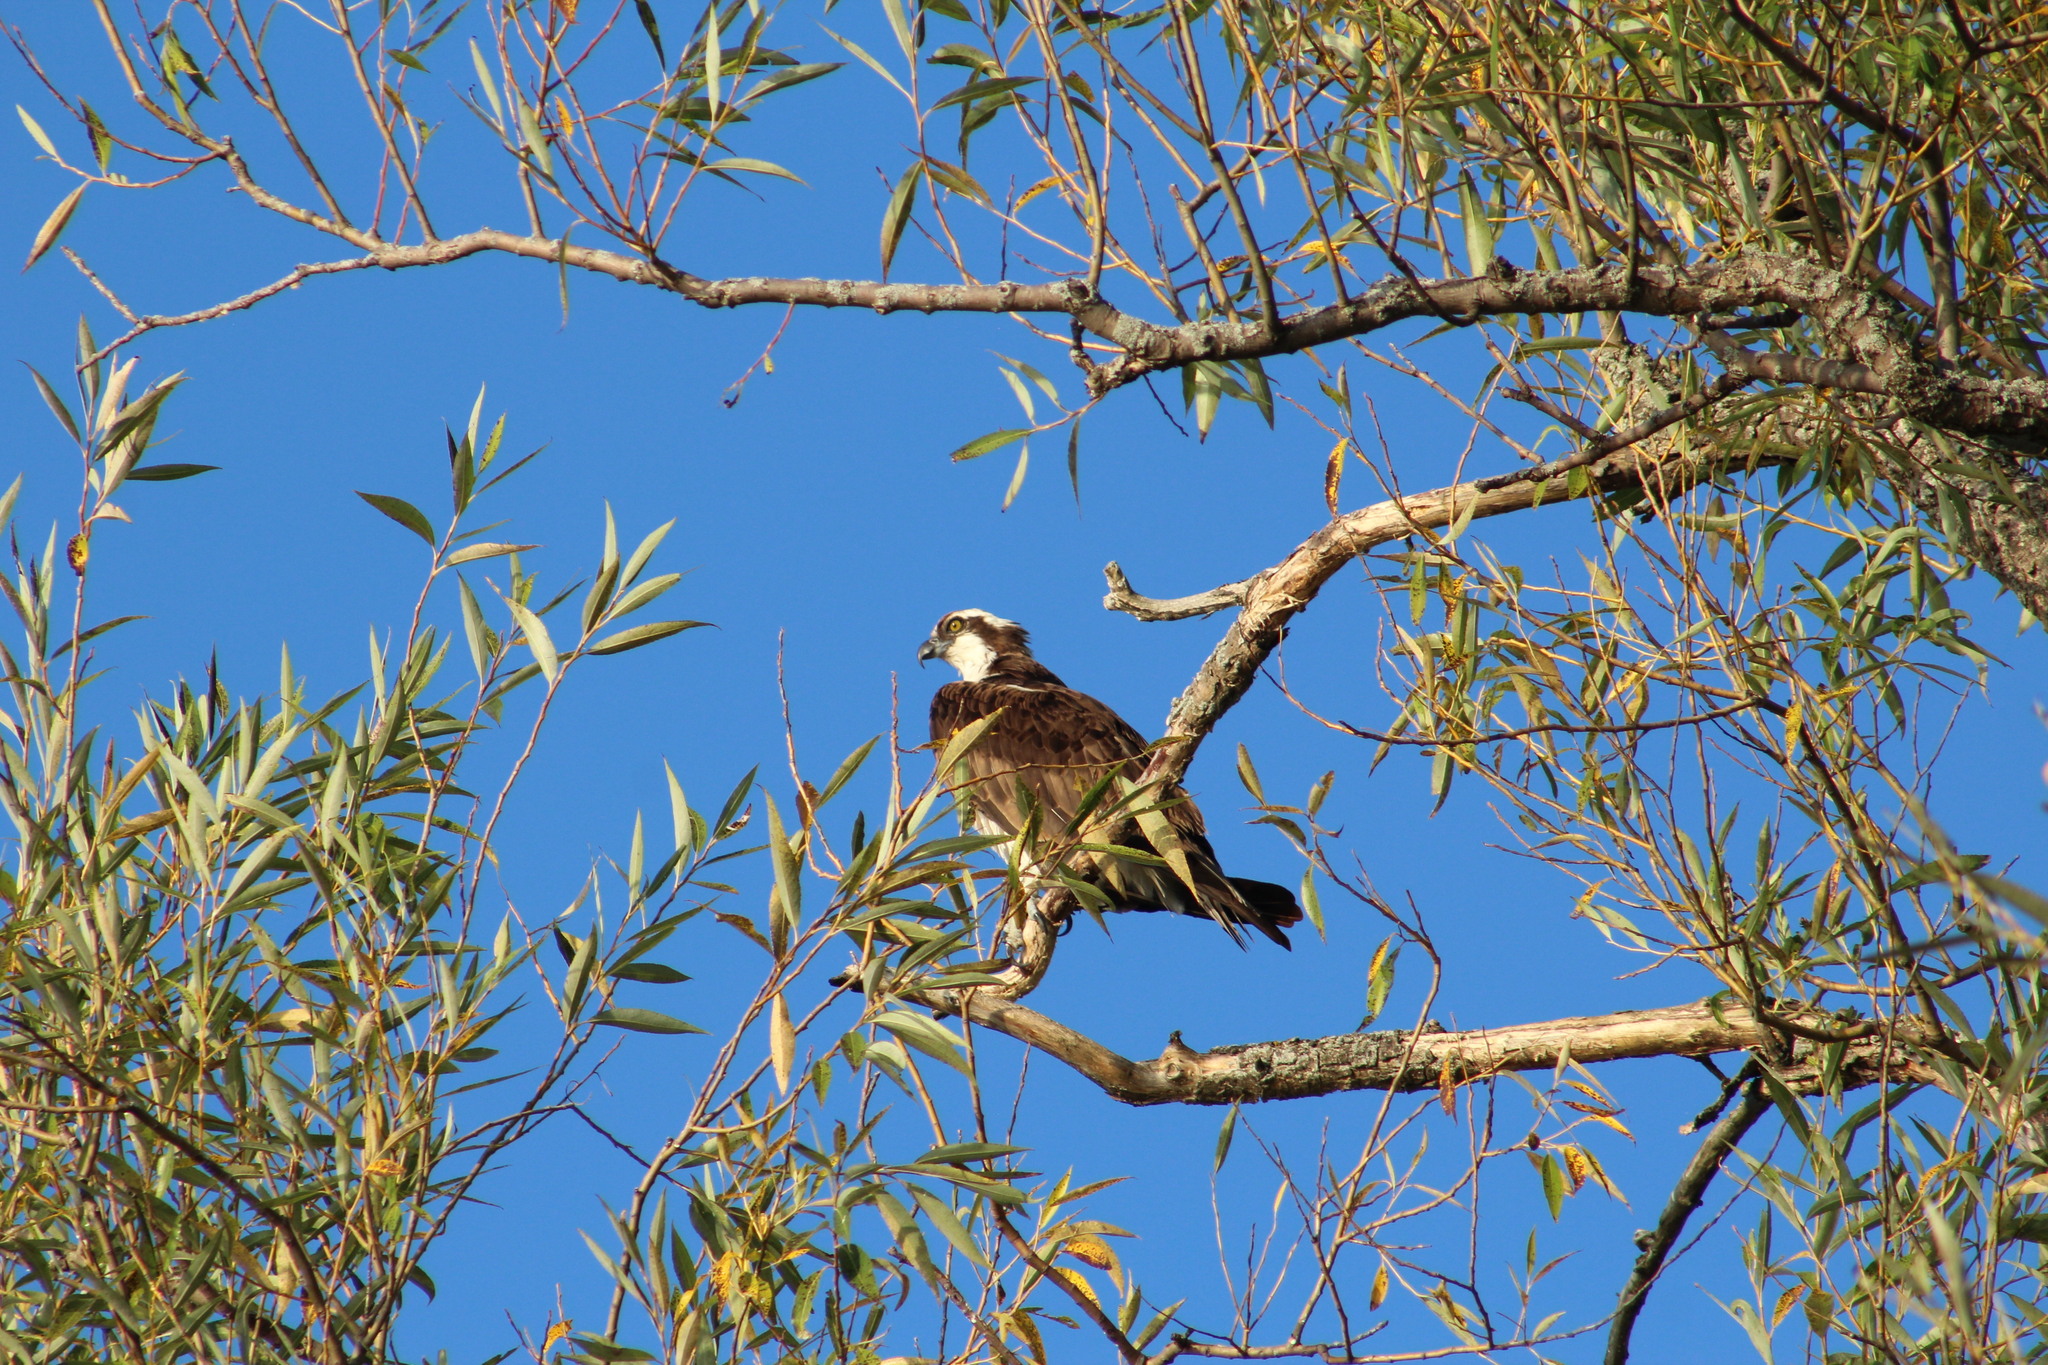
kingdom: Animalia
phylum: Chordata
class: Aves
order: Accipitriformes
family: Pandionidae
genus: Pandion
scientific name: Pandion haliaetus
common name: Osprey
